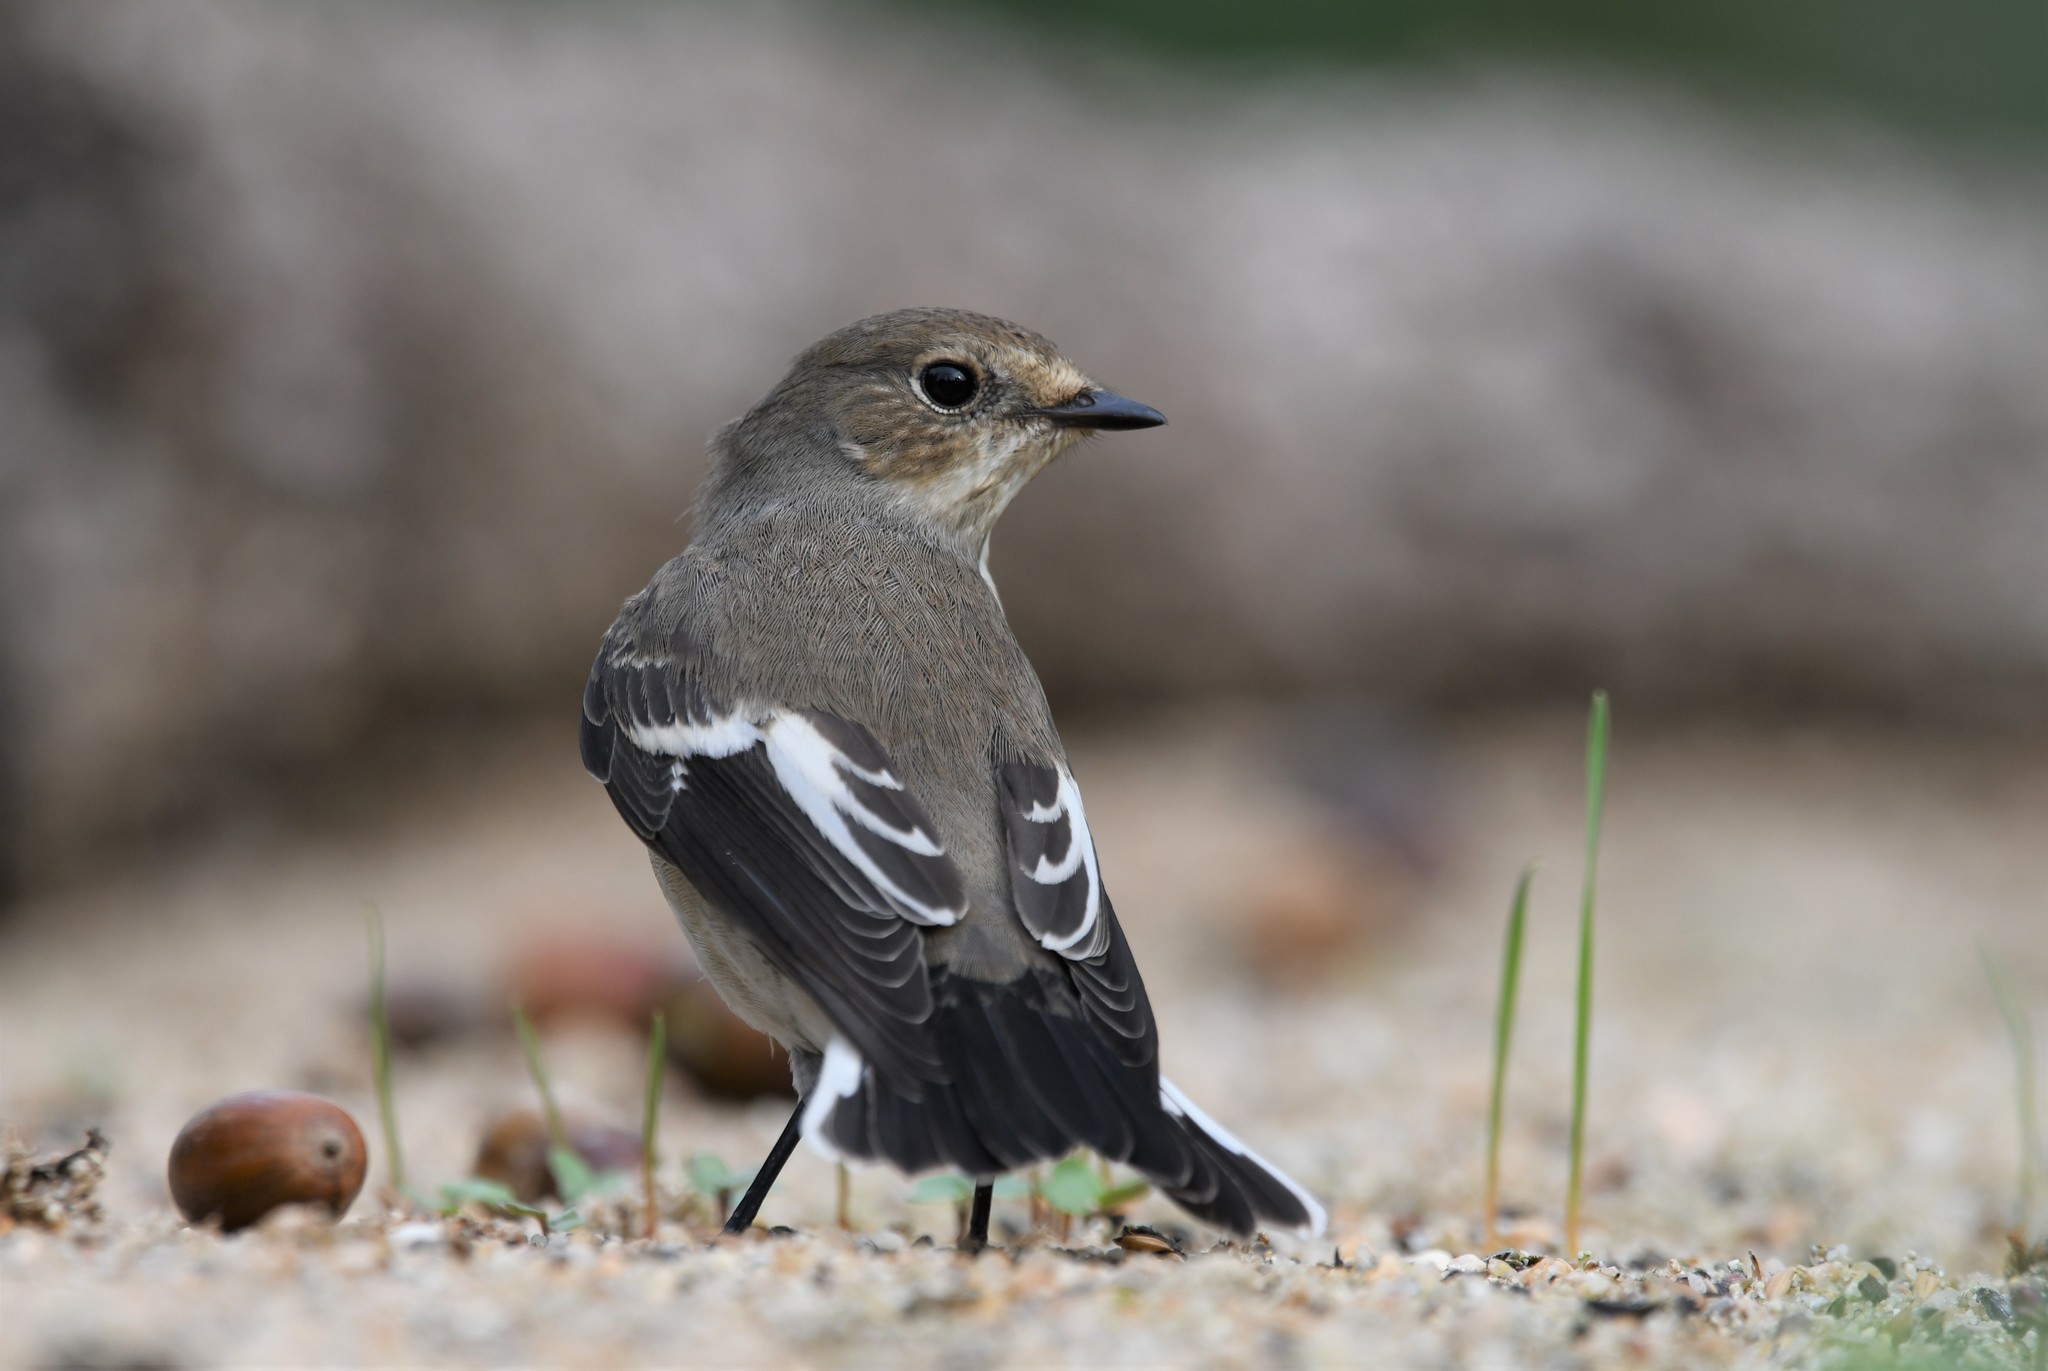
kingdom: Animalia
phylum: Chordata
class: Aves
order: Passeriformes
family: Muscicapidae
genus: Ficedula
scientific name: Ficedula hypoleuca
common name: European pied flycatcher
